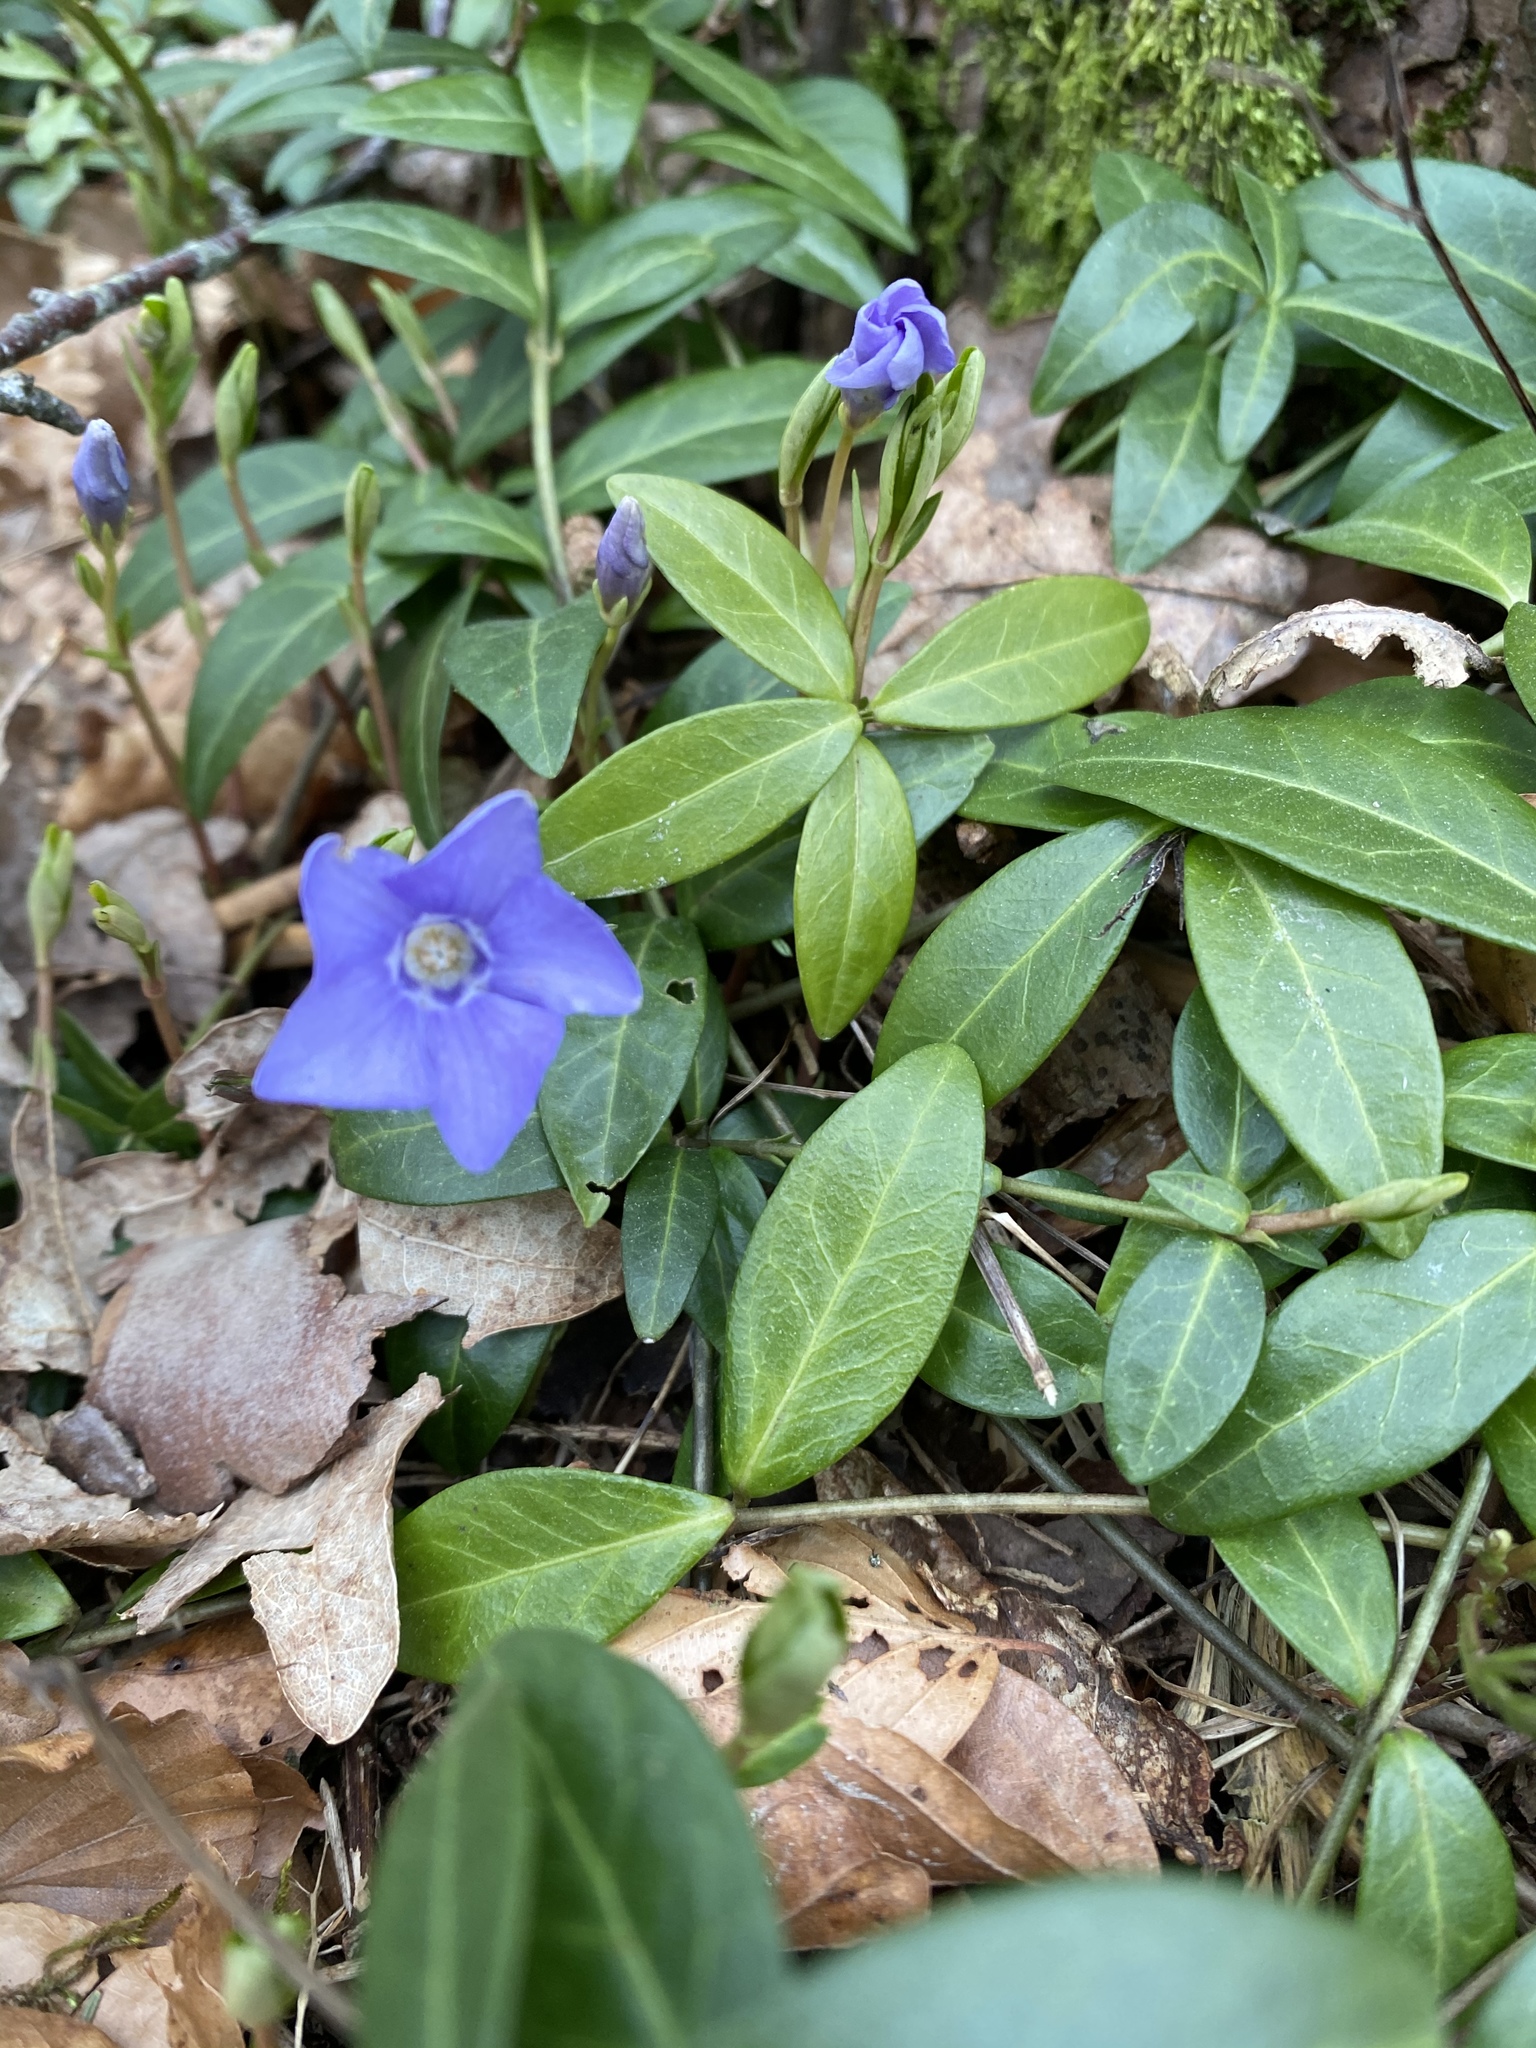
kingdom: Plantae
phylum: Tracheophyta
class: Magnoliopsida
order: Gentianales
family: Apocynaceae
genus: Vinca
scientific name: Vinca minor
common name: Lesser periwinkle
